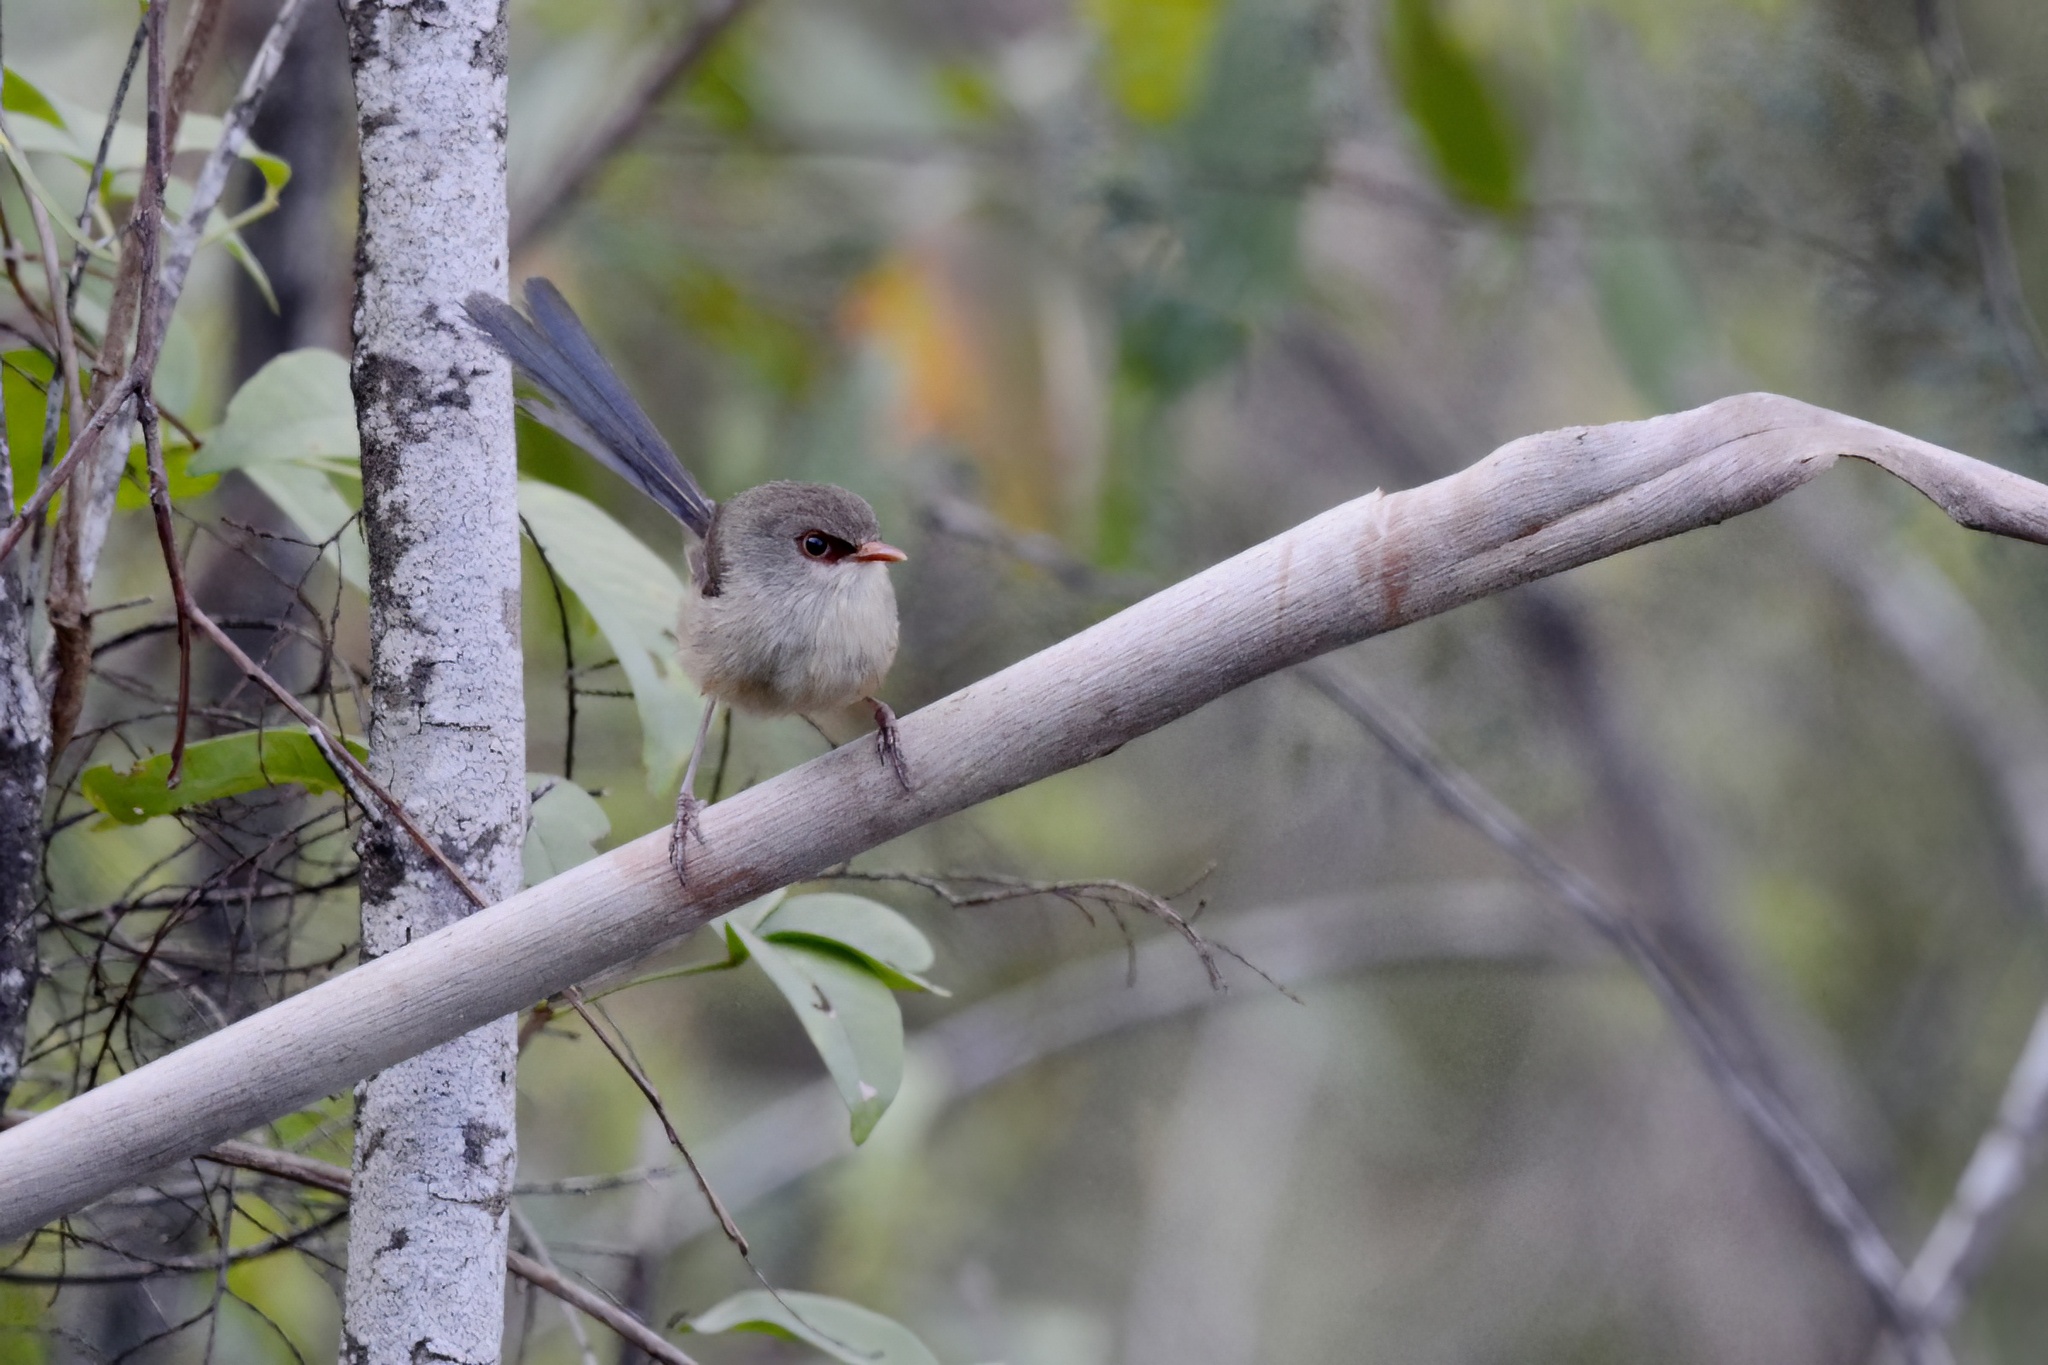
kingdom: Animalia
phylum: Chordata
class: Aves
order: Passeriformes
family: Maluridae
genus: Malurus
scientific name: Malurus lamberti
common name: Variegated fairywren
